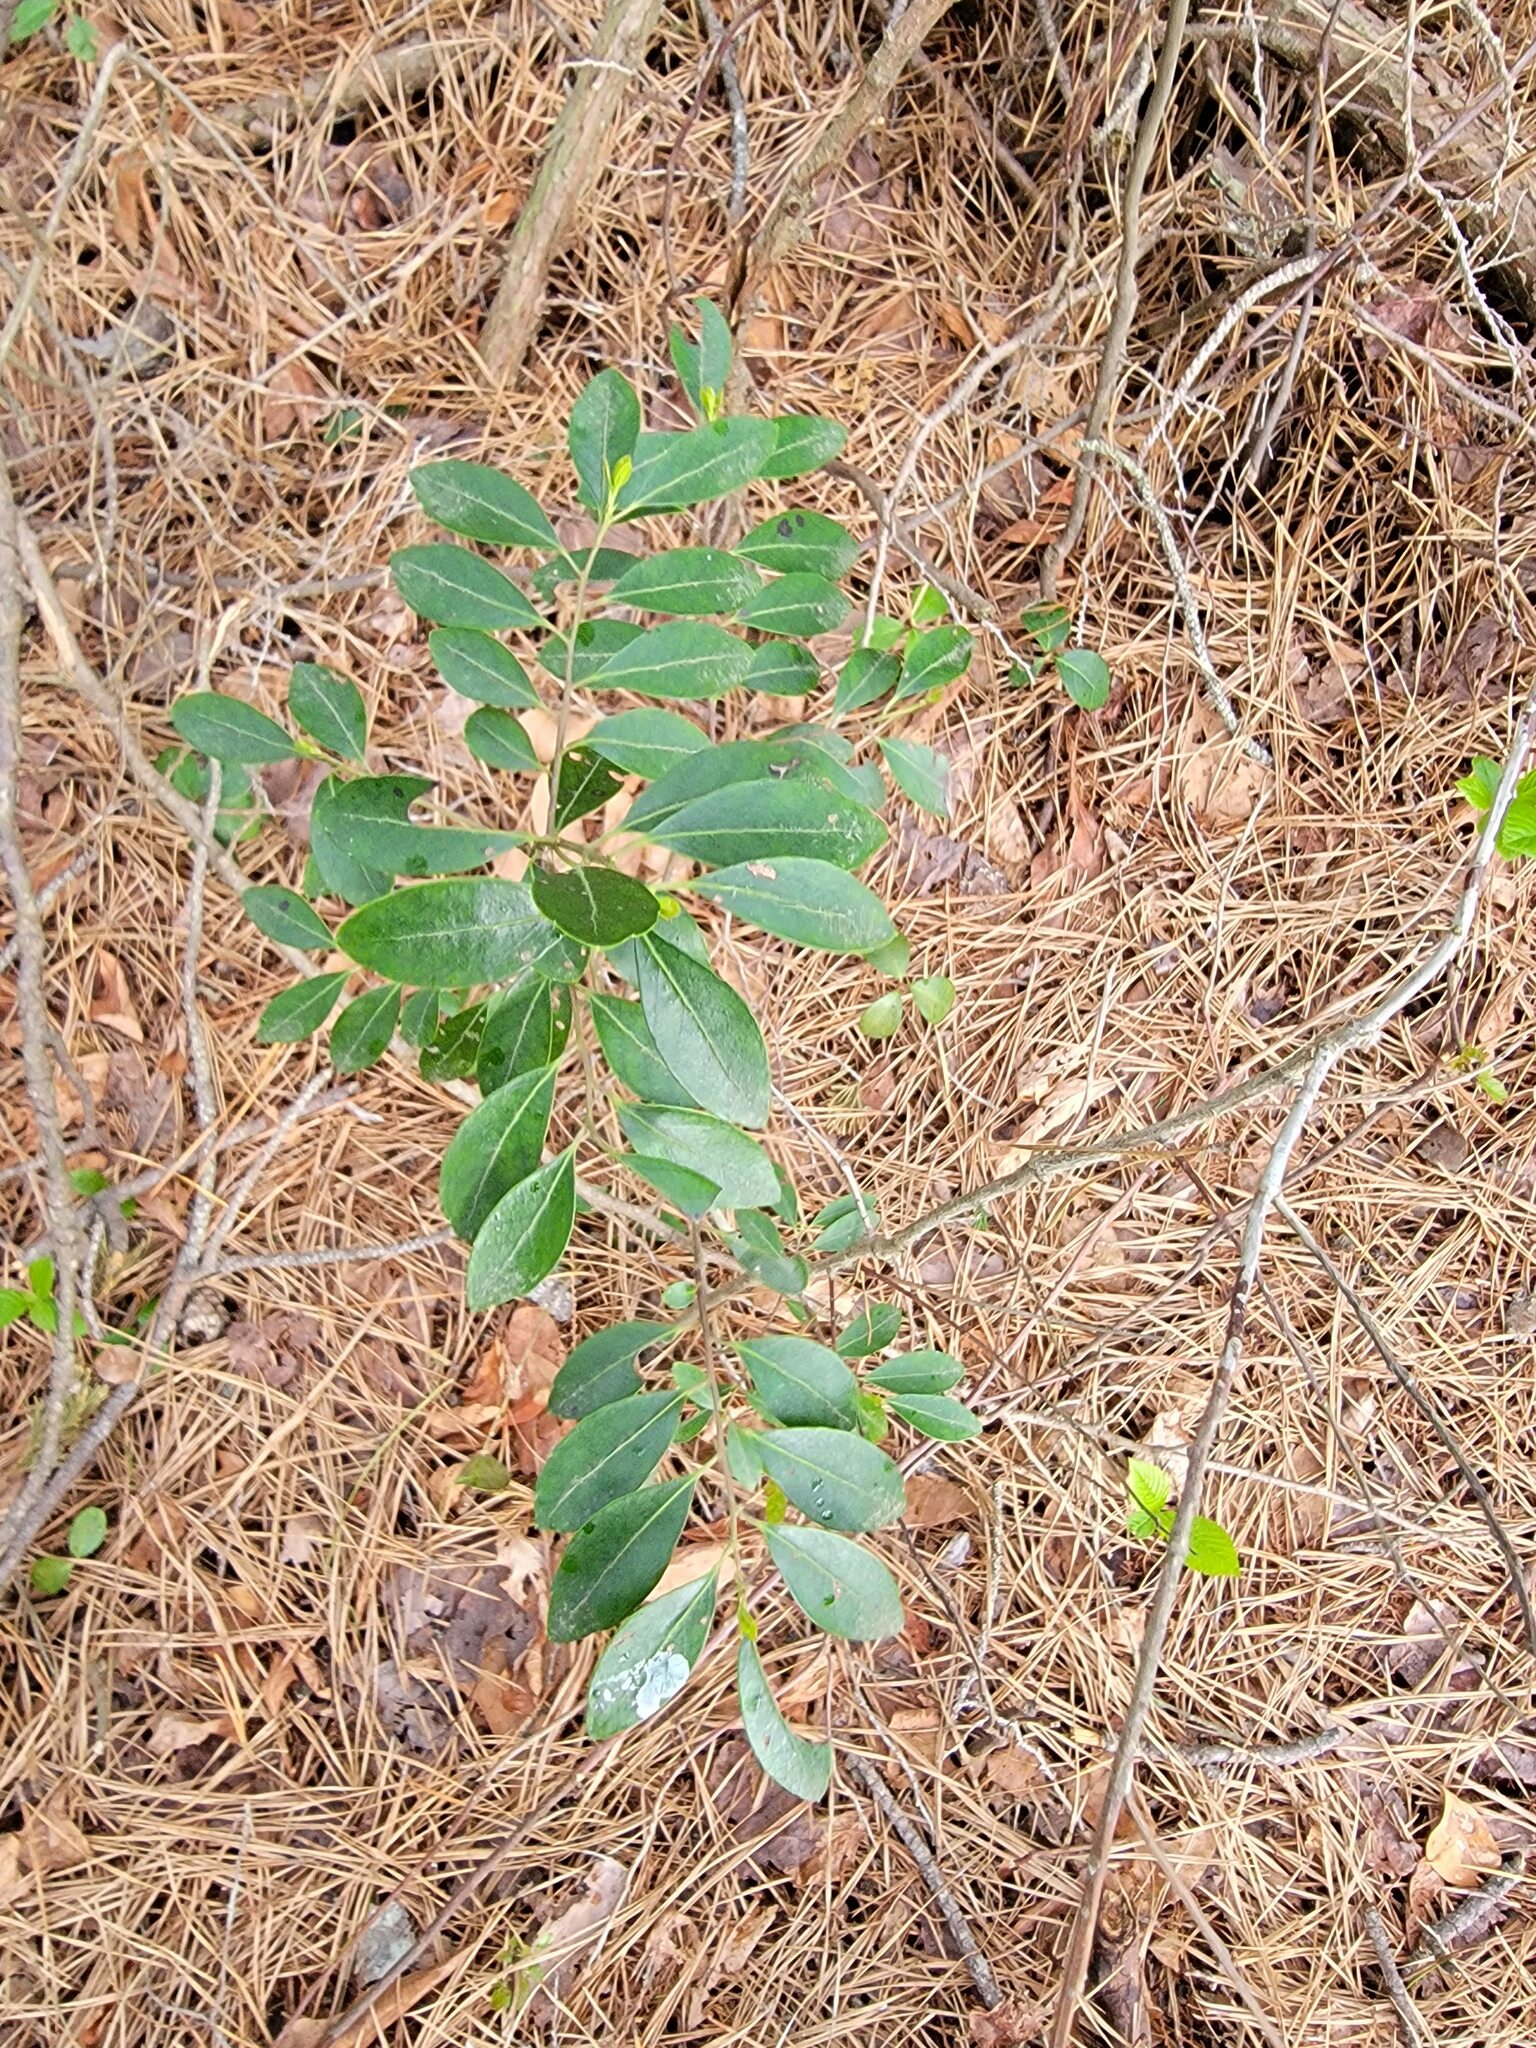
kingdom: Plantae
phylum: Tracheophyta
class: Magnoliopsida
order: Aquifoliales
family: Aquifoliaceae
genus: Ilex
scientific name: Ilex glabra
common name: Bitter gallberry
